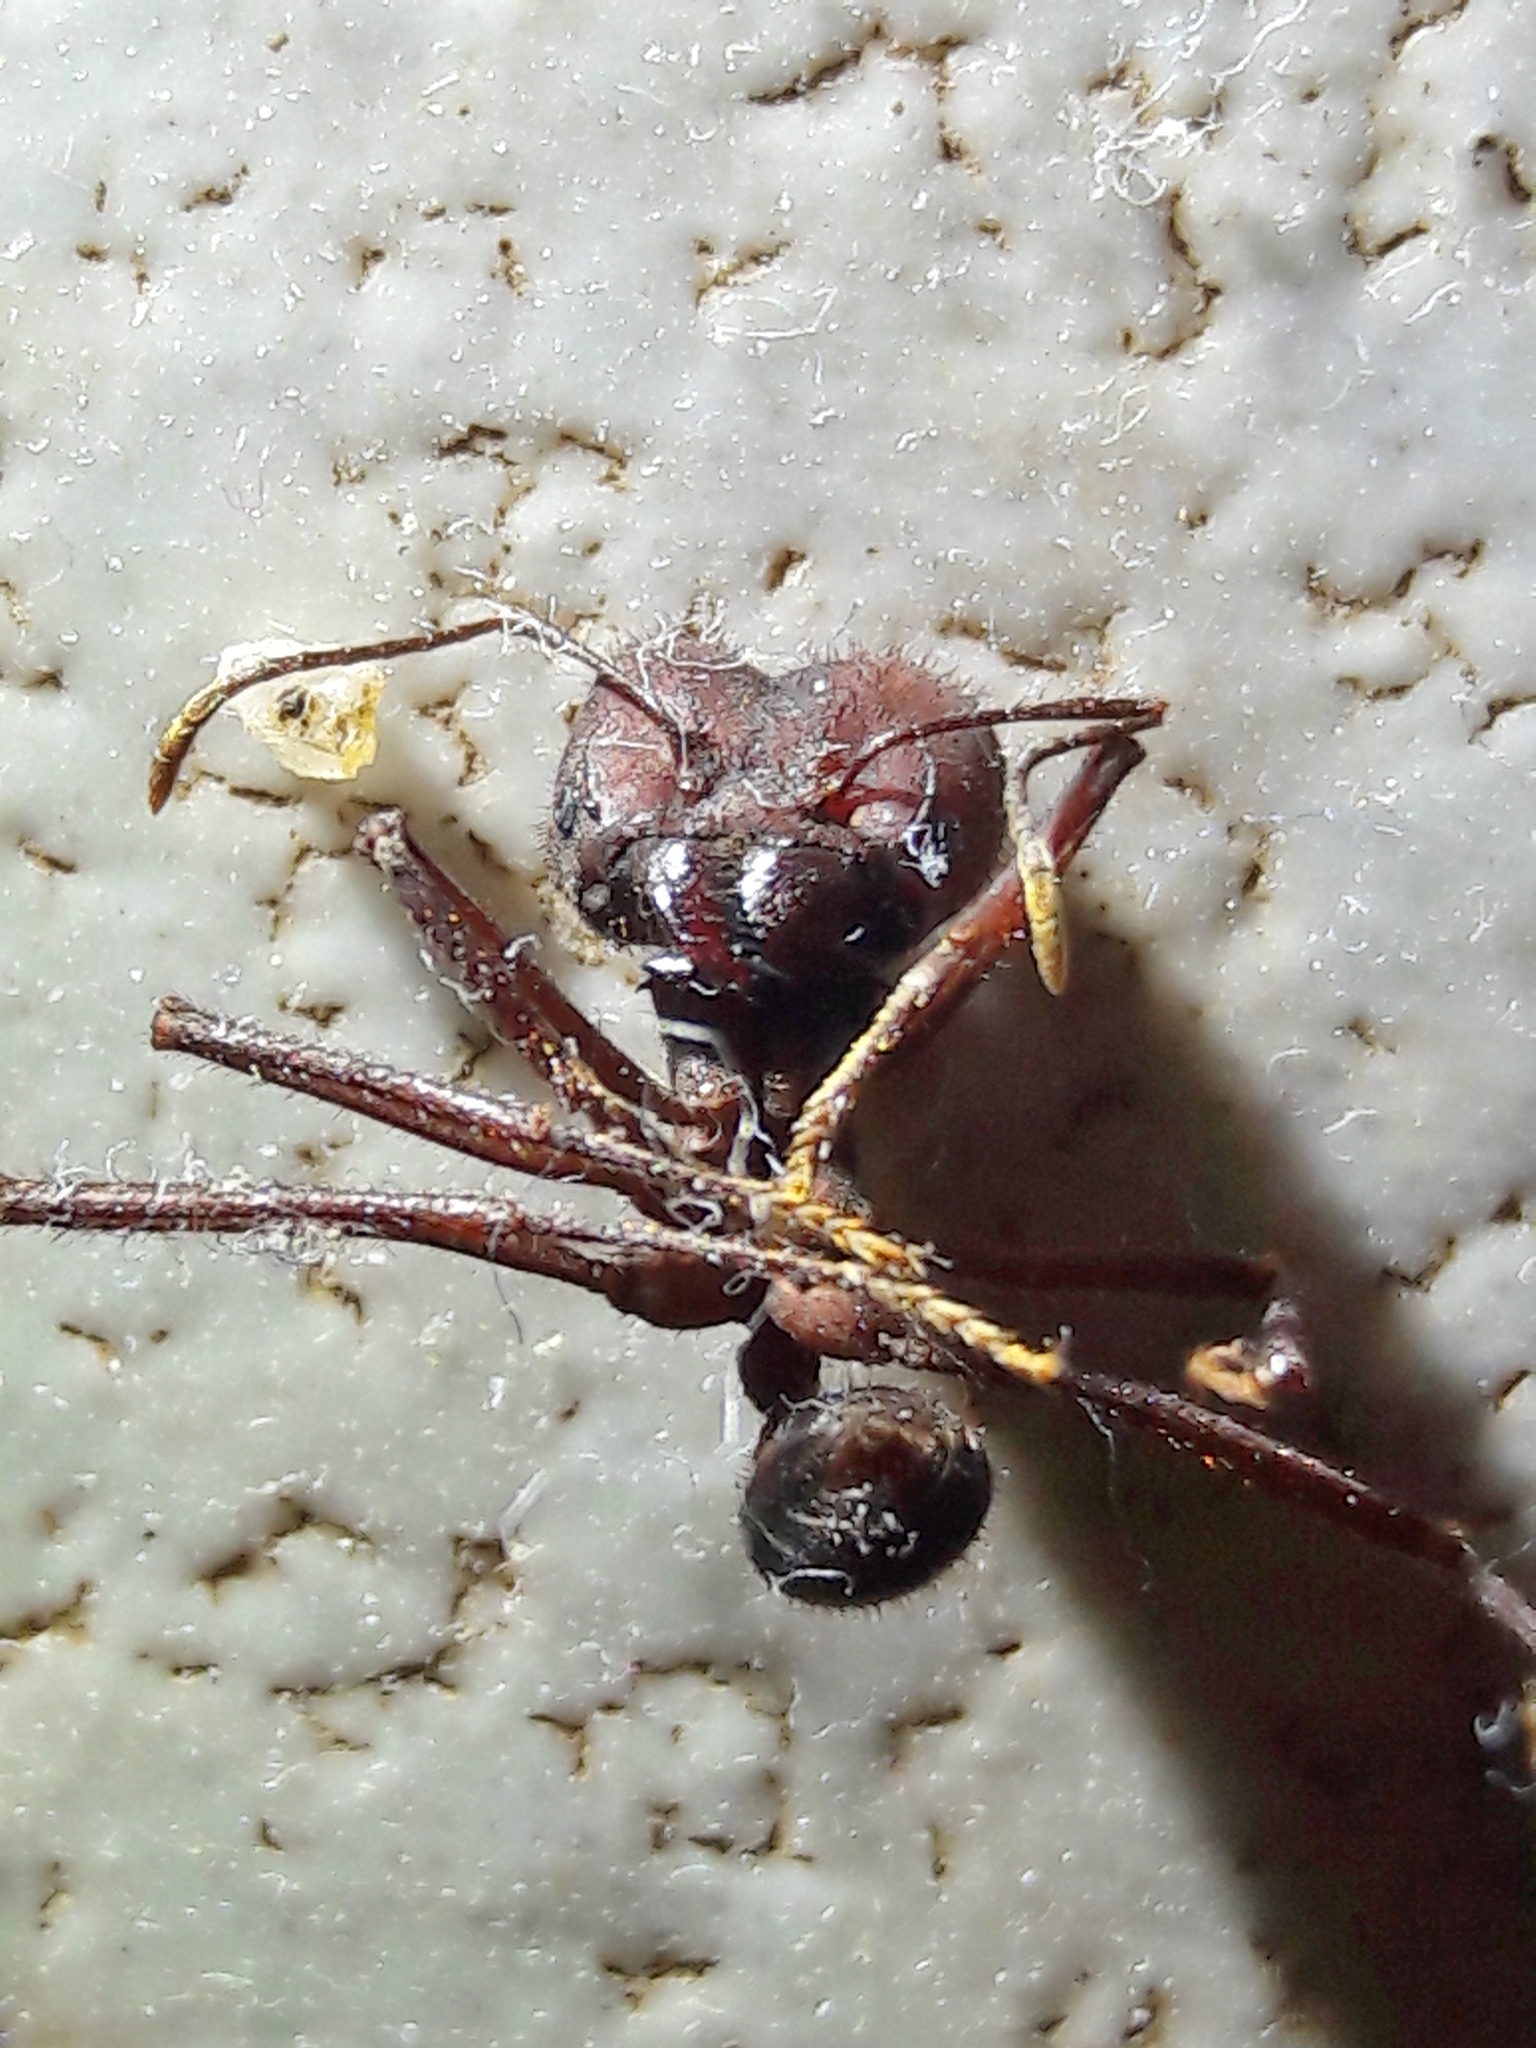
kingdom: Animalia
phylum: Arthropoda
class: Insecta
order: Hymenoptera
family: Formicidae
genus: Atta
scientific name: Atta sexdens
